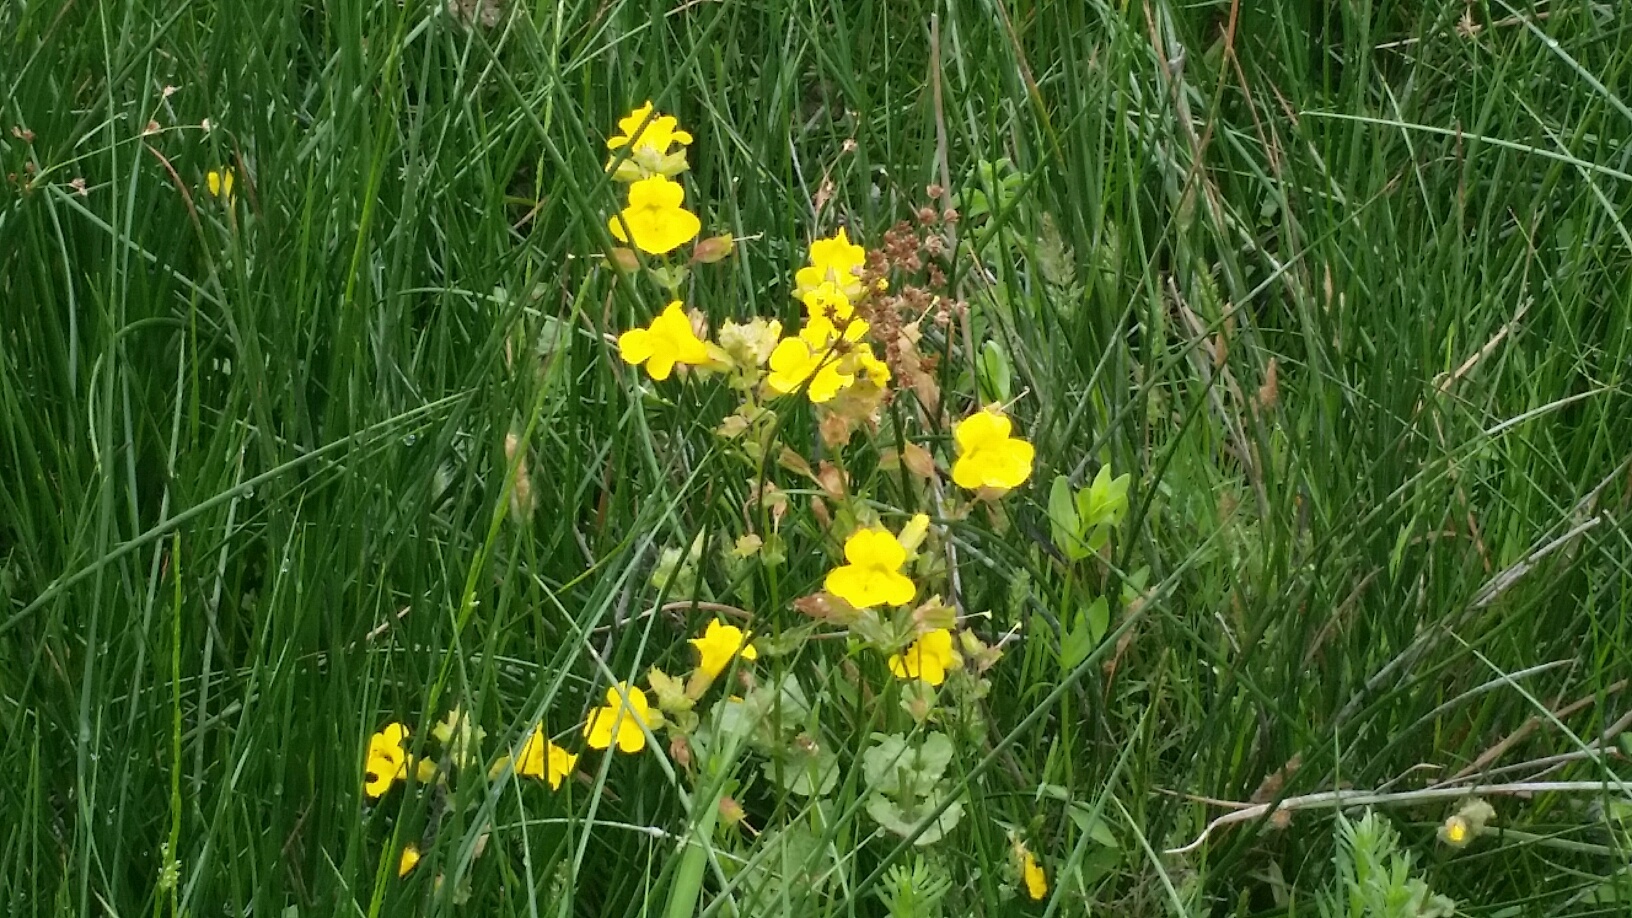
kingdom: Plantae
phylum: Tracheophyta
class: Magnoliopsida
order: Lamiales
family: Phrymaceae
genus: Erythranthe
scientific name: Erythranthe guttata
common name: Monkeyflower
